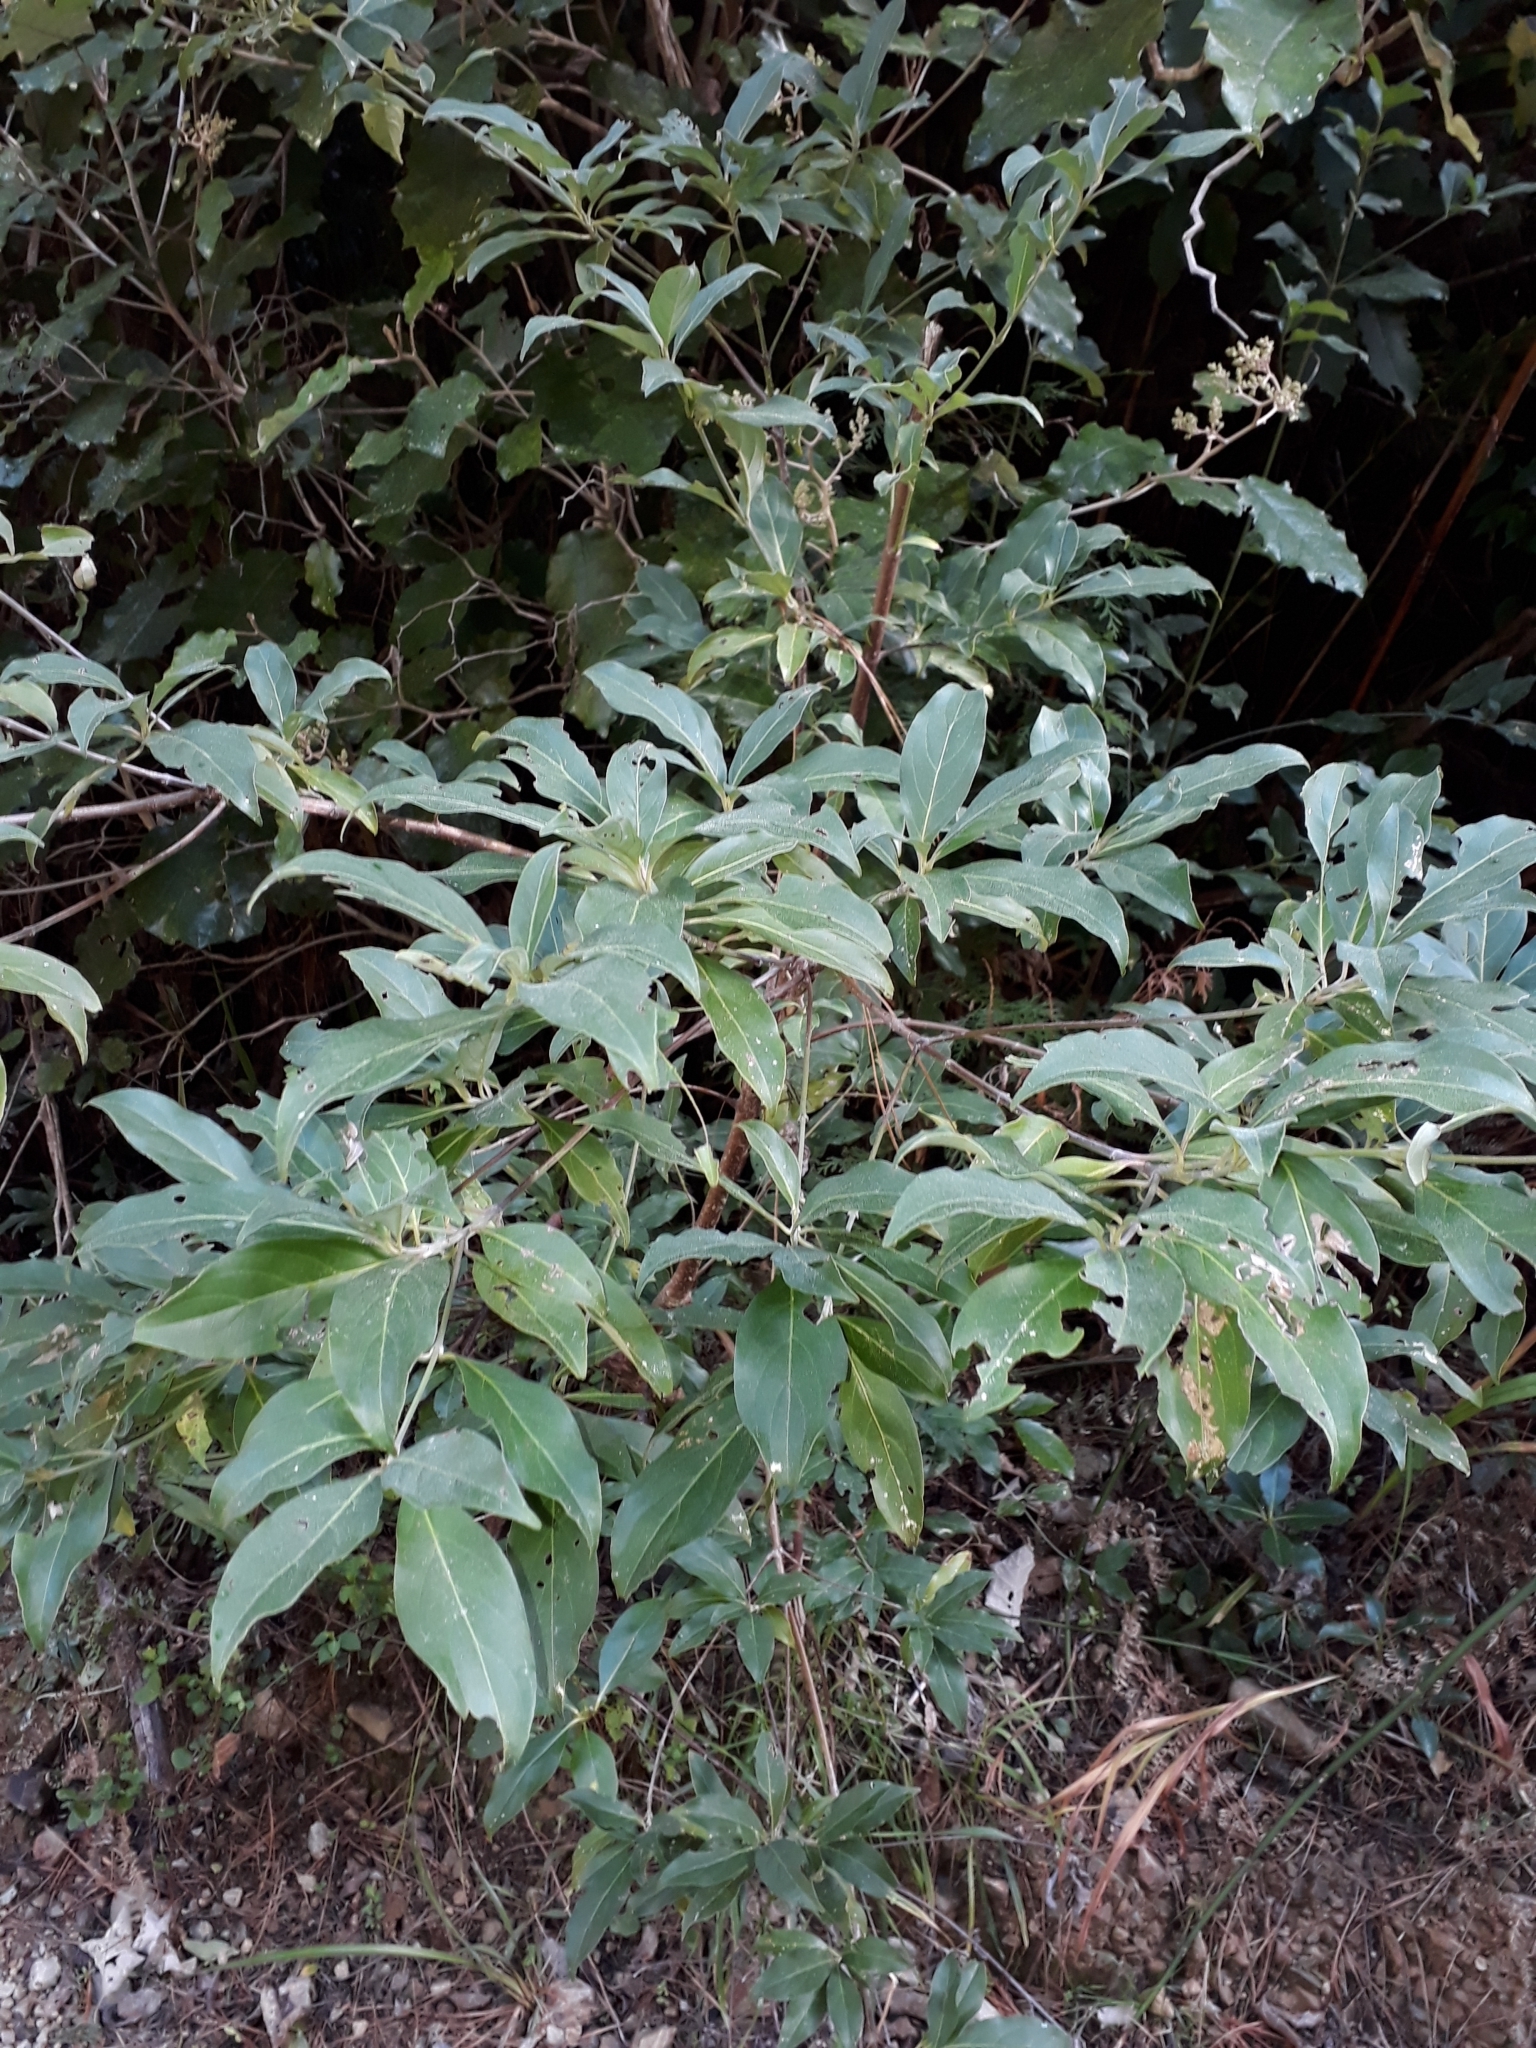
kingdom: Plantae
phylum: Tracheophyta
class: Magnoliopsida
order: Cornales
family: Cornaceae
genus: Cornus
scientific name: Cornus capitata
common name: Bentham's cornel
